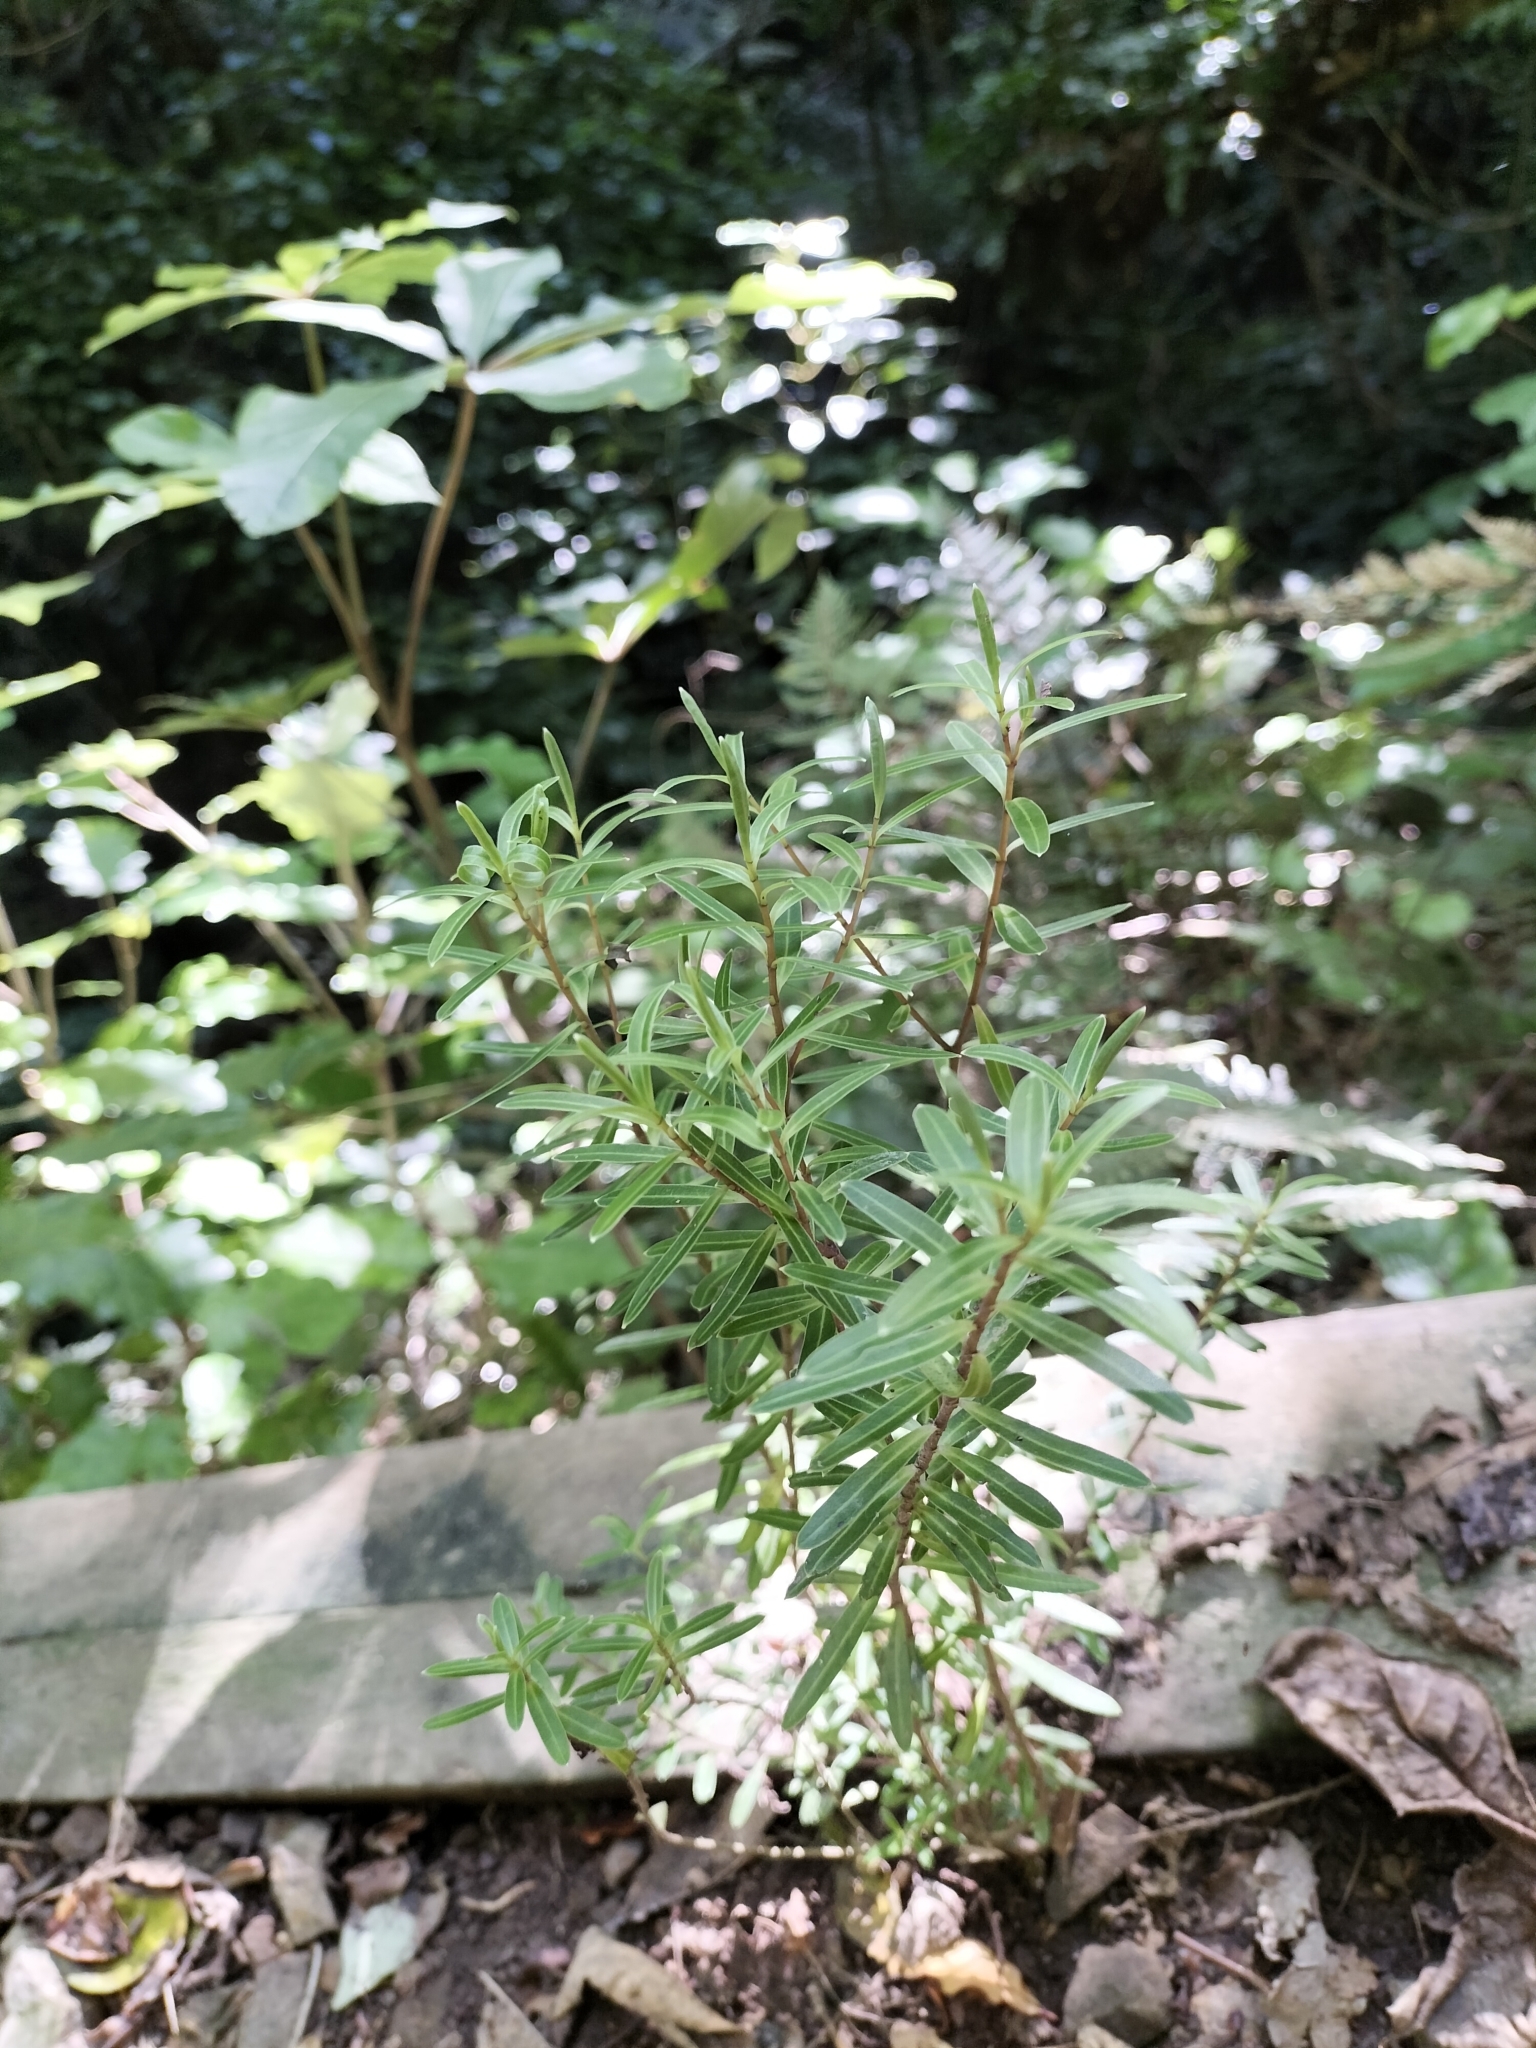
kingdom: Plantae
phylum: Tracheophyta
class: Magnoliopsida
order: Lamiales
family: Plantaginaceae
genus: Veronica
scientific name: Veronica parviflora
